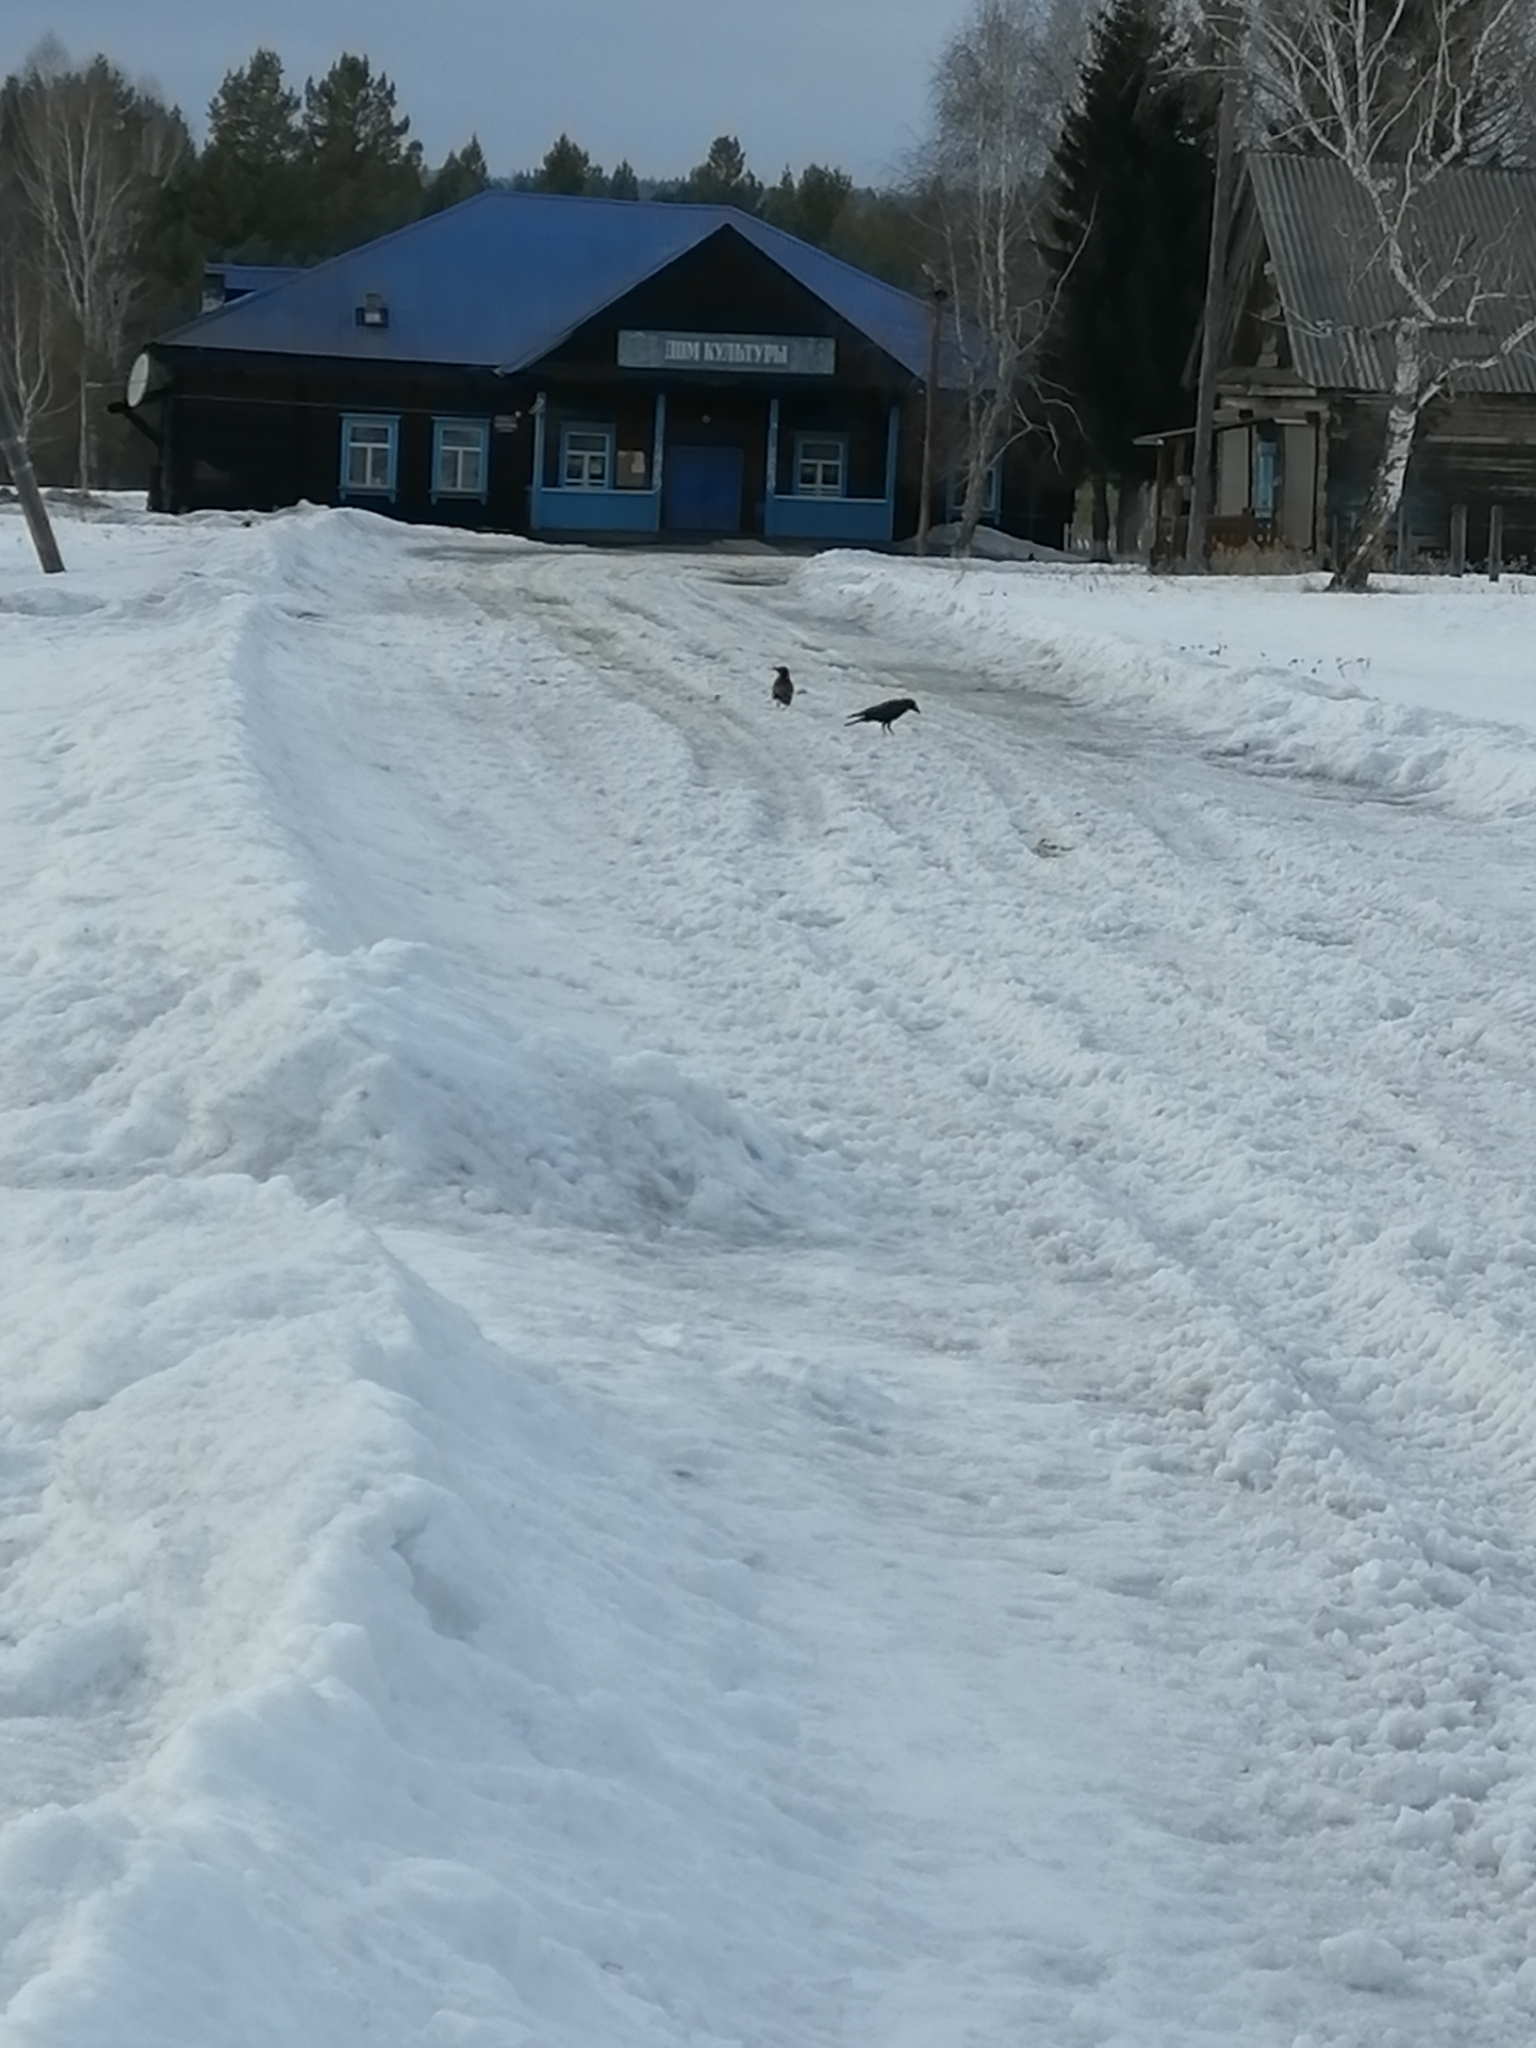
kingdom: Animalia
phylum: Chordata
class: Aves
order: Passeriformes
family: Corvidae
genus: Corvus
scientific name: Corvus corone
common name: Carrion crow
